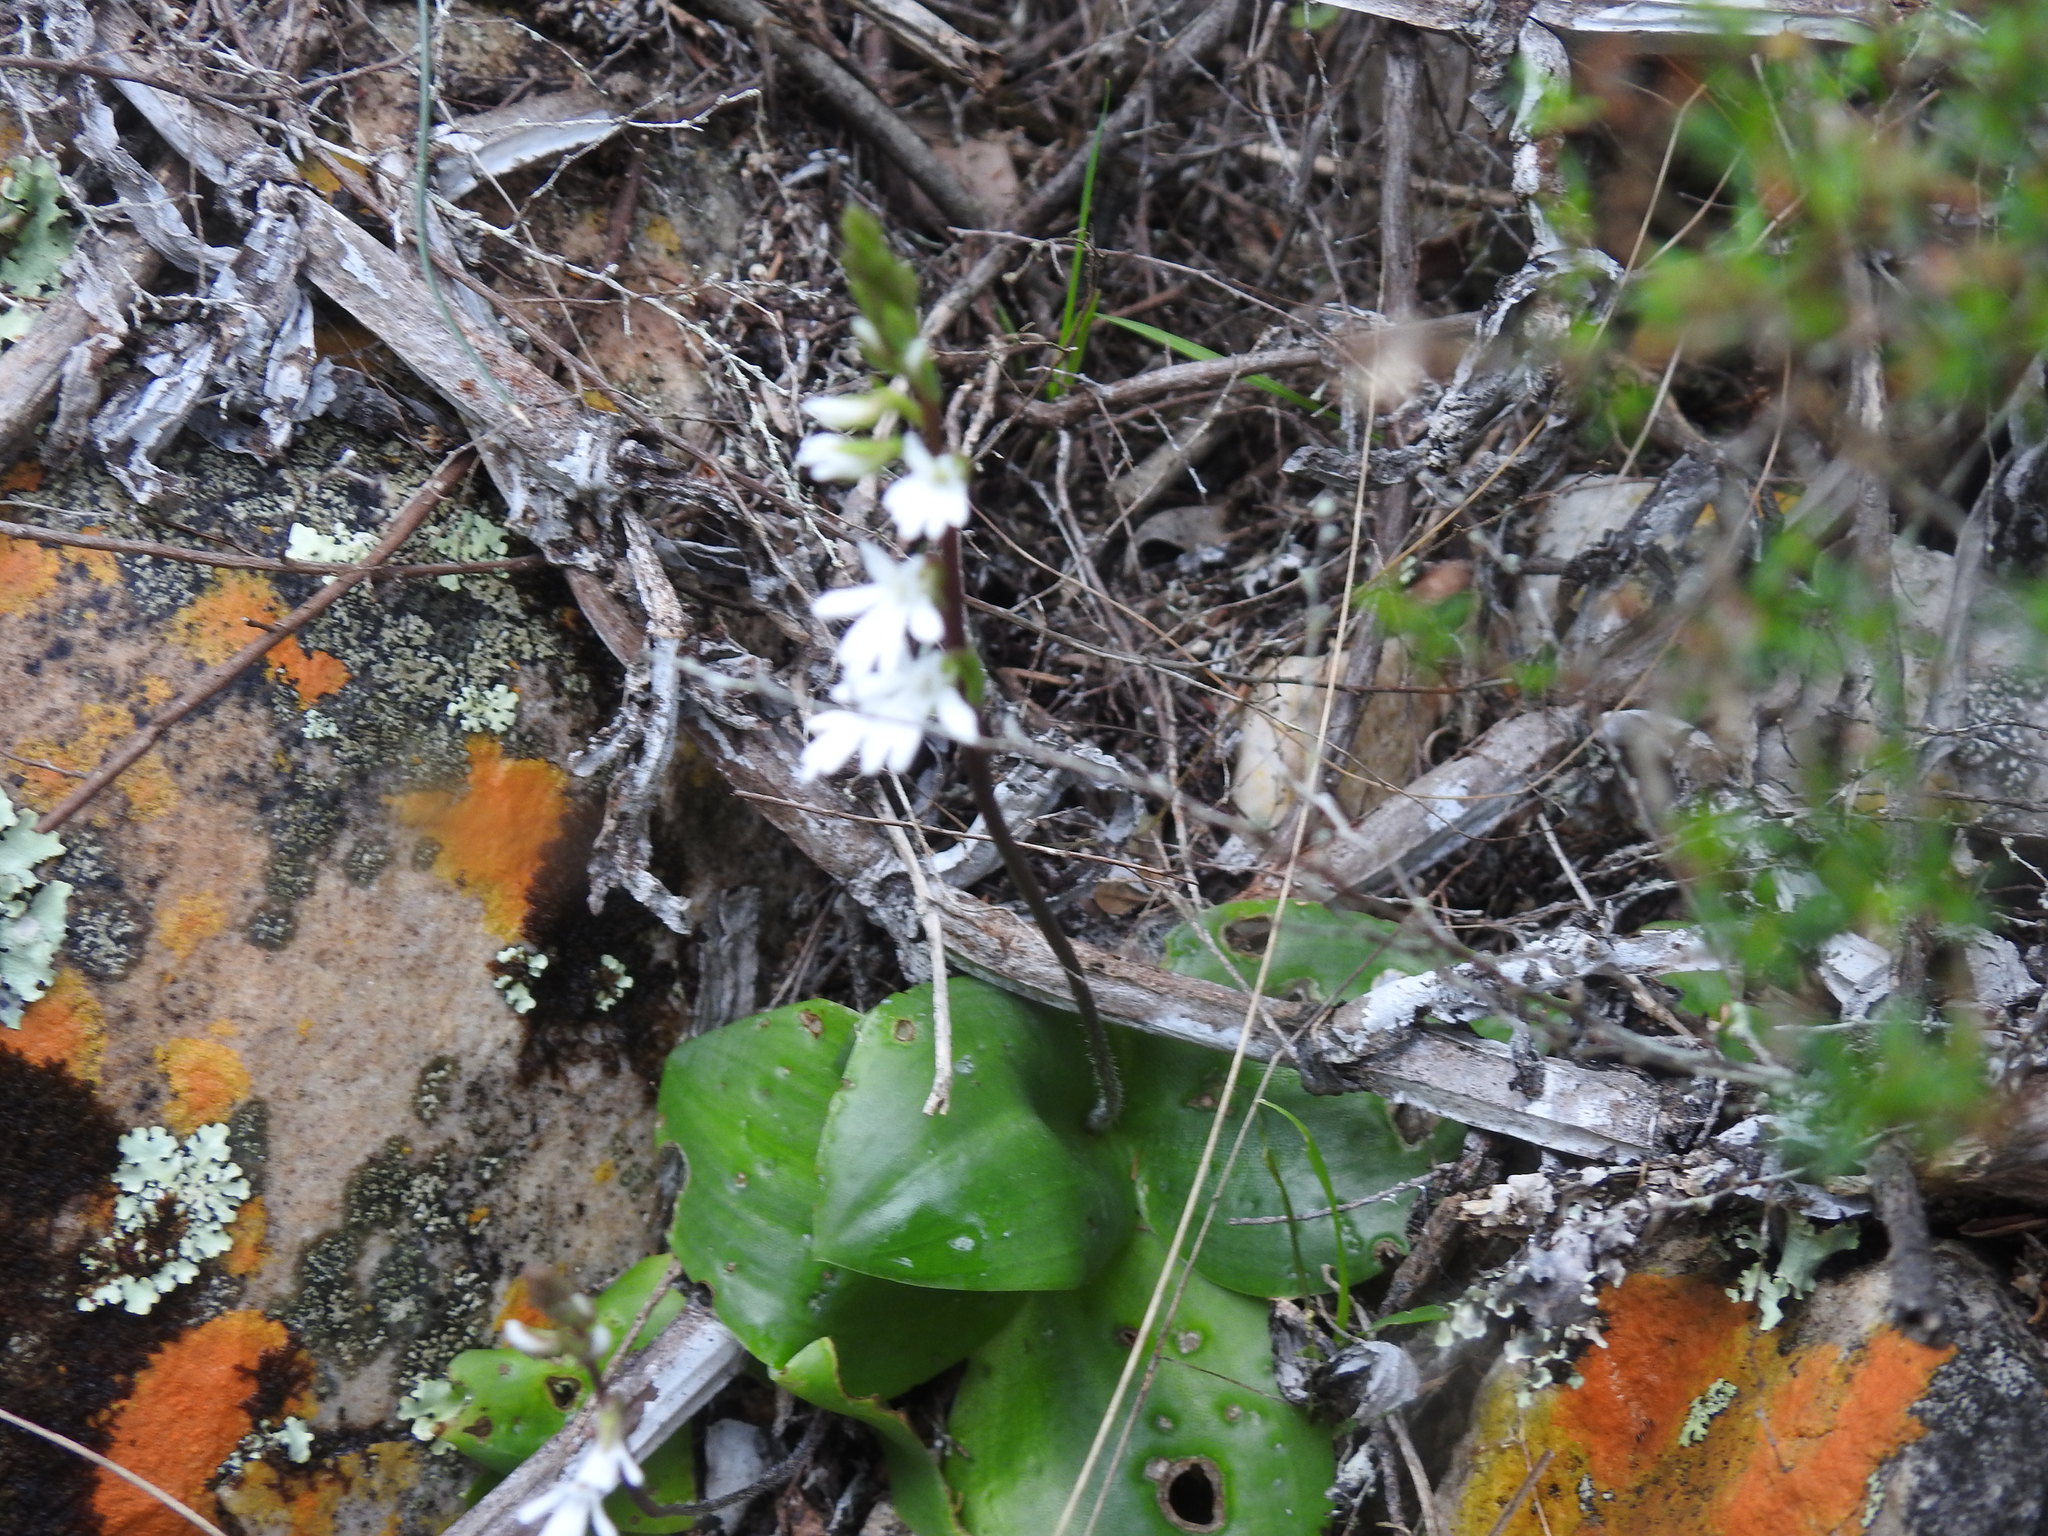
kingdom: Plantae
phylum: Tracheophyta
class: Liliopsida
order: Asparagales
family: Orchidaceae
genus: Holothrix
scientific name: Holothrix parviflora
